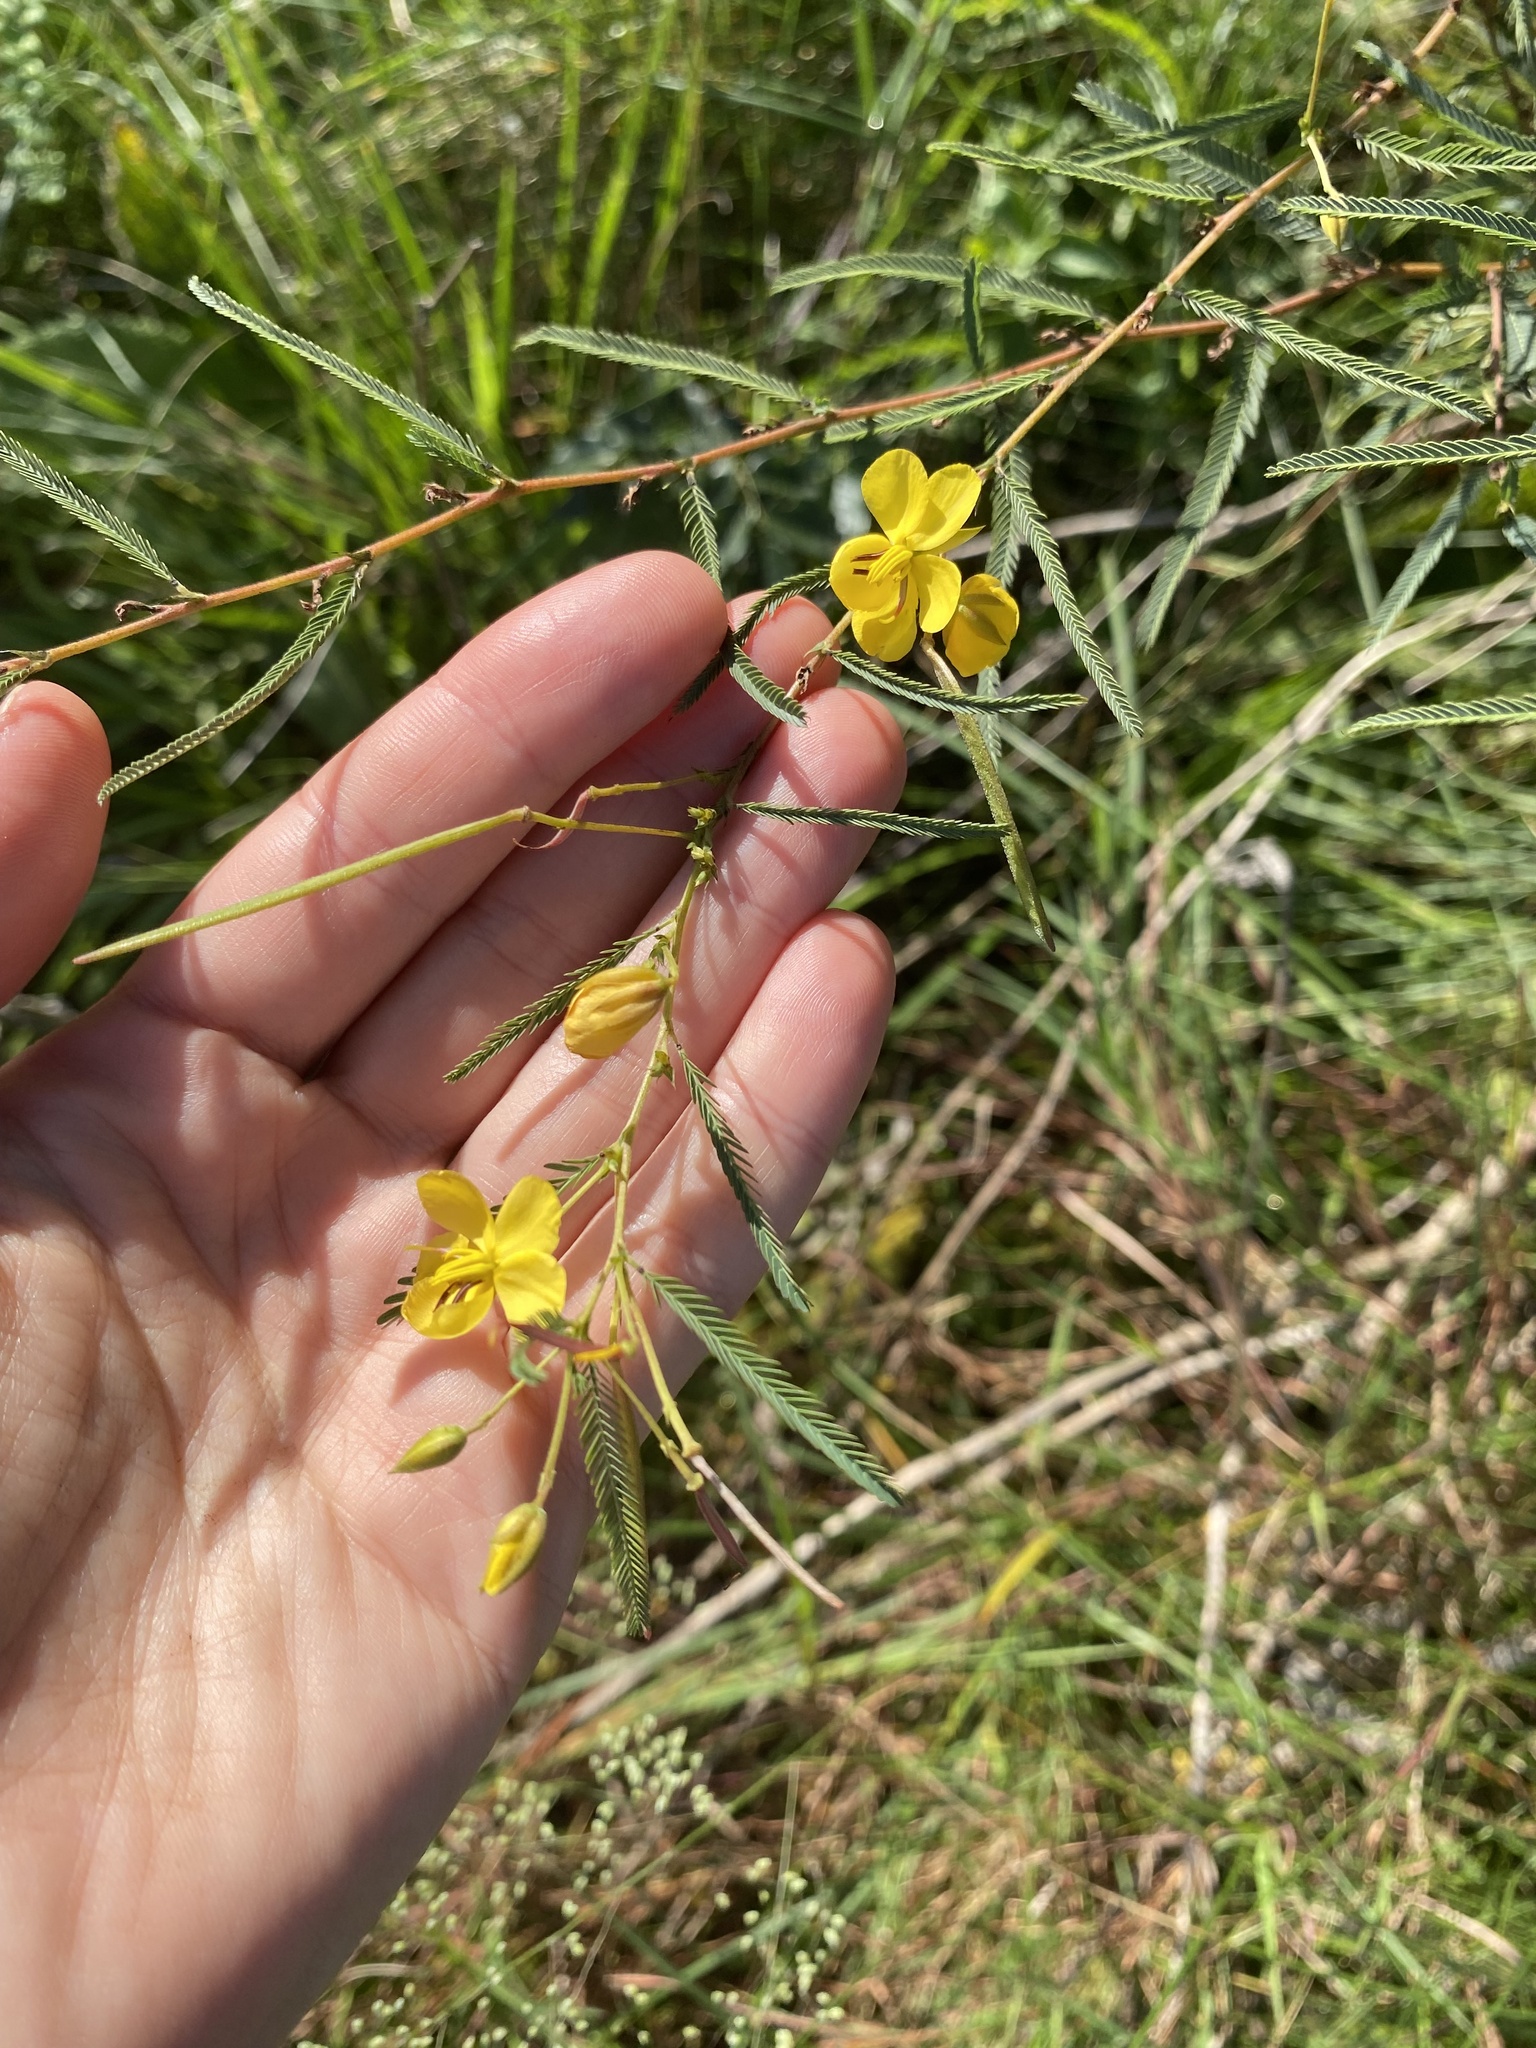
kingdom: Plantae
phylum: Tracheophyta
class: Magnoliopsida
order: Fabales
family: Fabaceae
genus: Chamaecrista
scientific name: Chamaecrista mimosoides
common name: Fish-bone cassia
